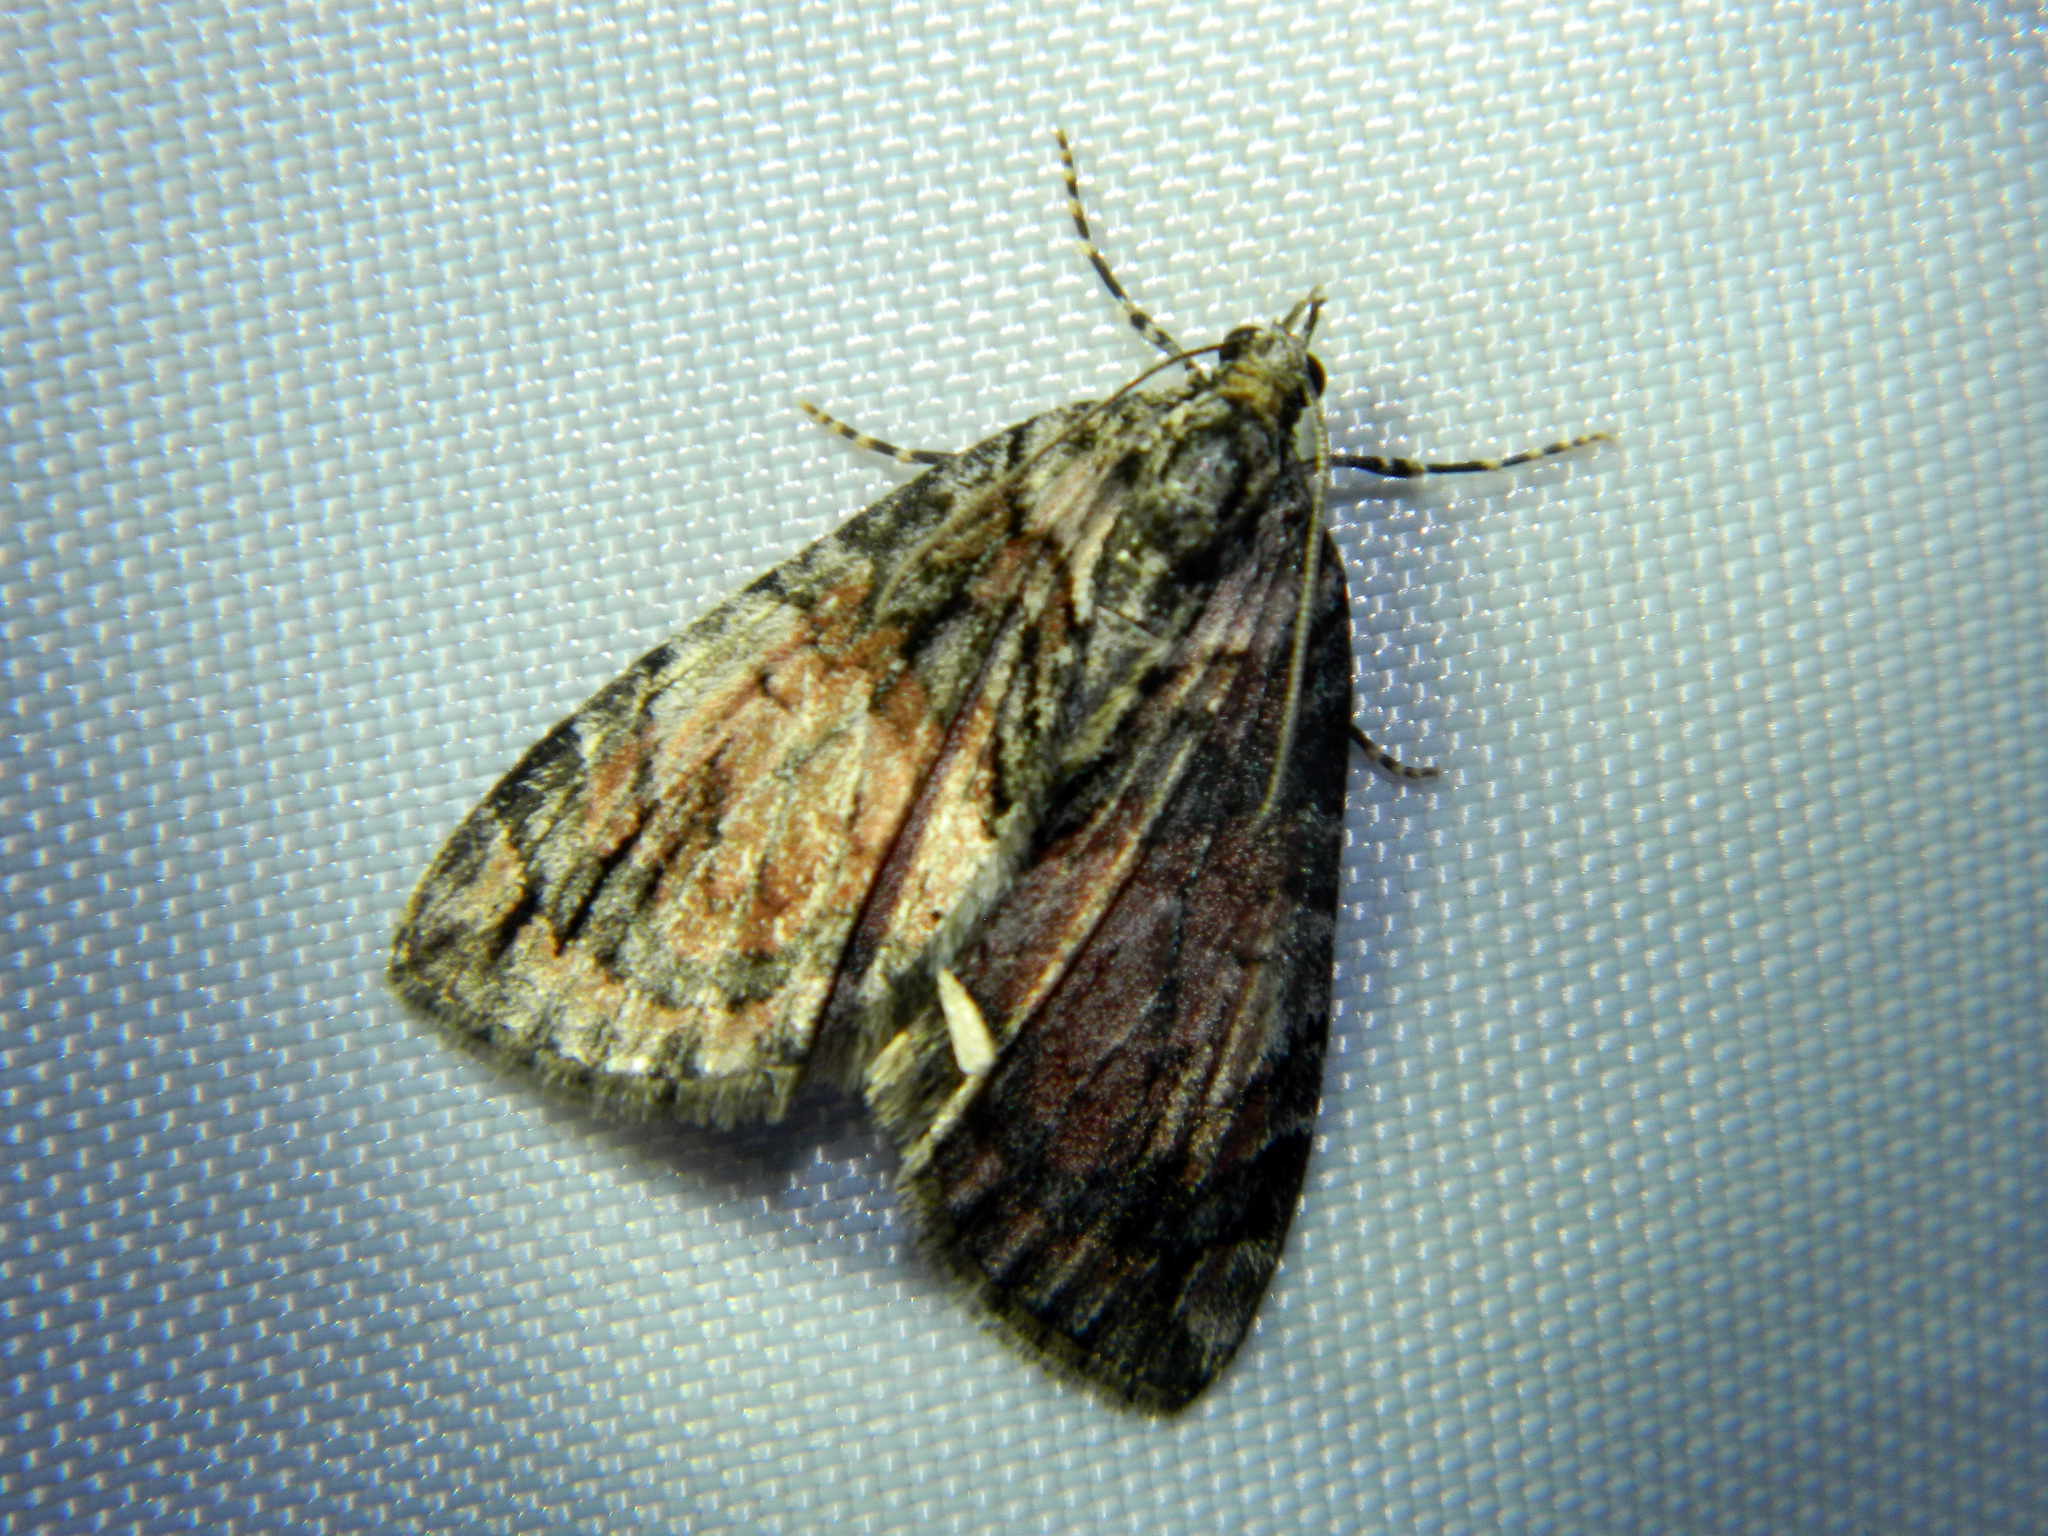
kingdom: Animalia
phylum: Arthropoda
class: Insecta
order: Lepidoptera
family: Geometridae
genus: Hydriomena
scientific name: Hydriomena perfracta
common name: Shattered hydriomena moth
